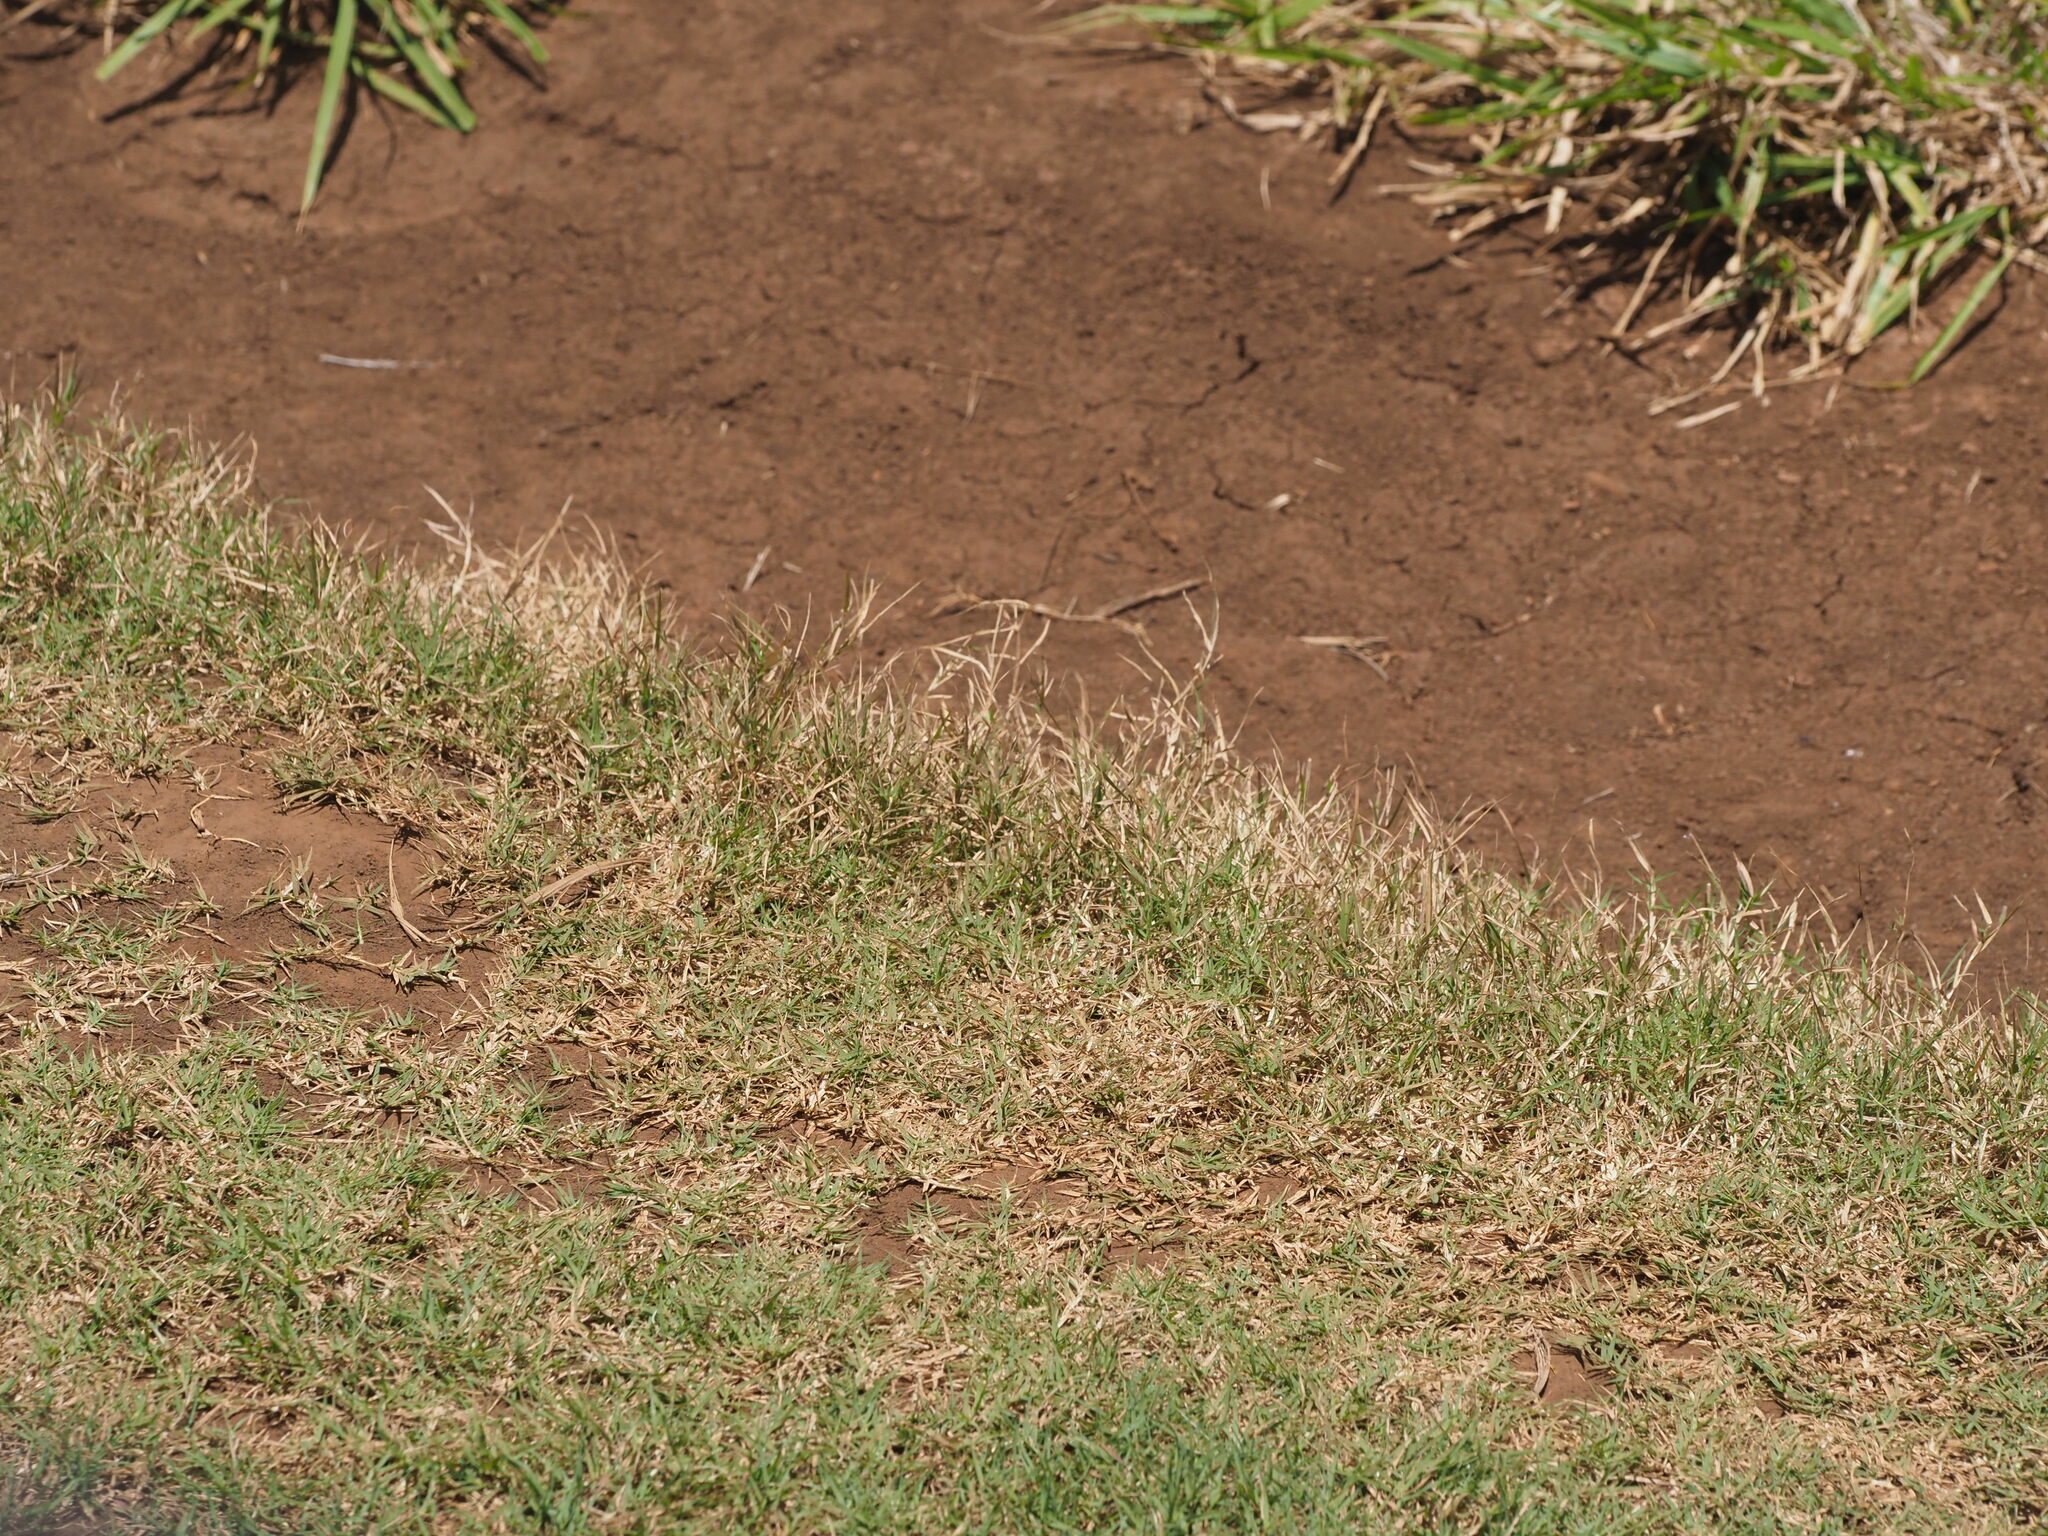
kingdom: Plantae
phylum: Tracheophyta
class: Liliopsida
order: Poales
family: Poaceae
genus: Cynodon
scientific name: Cynodon dactylon
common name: Bermuda grass
